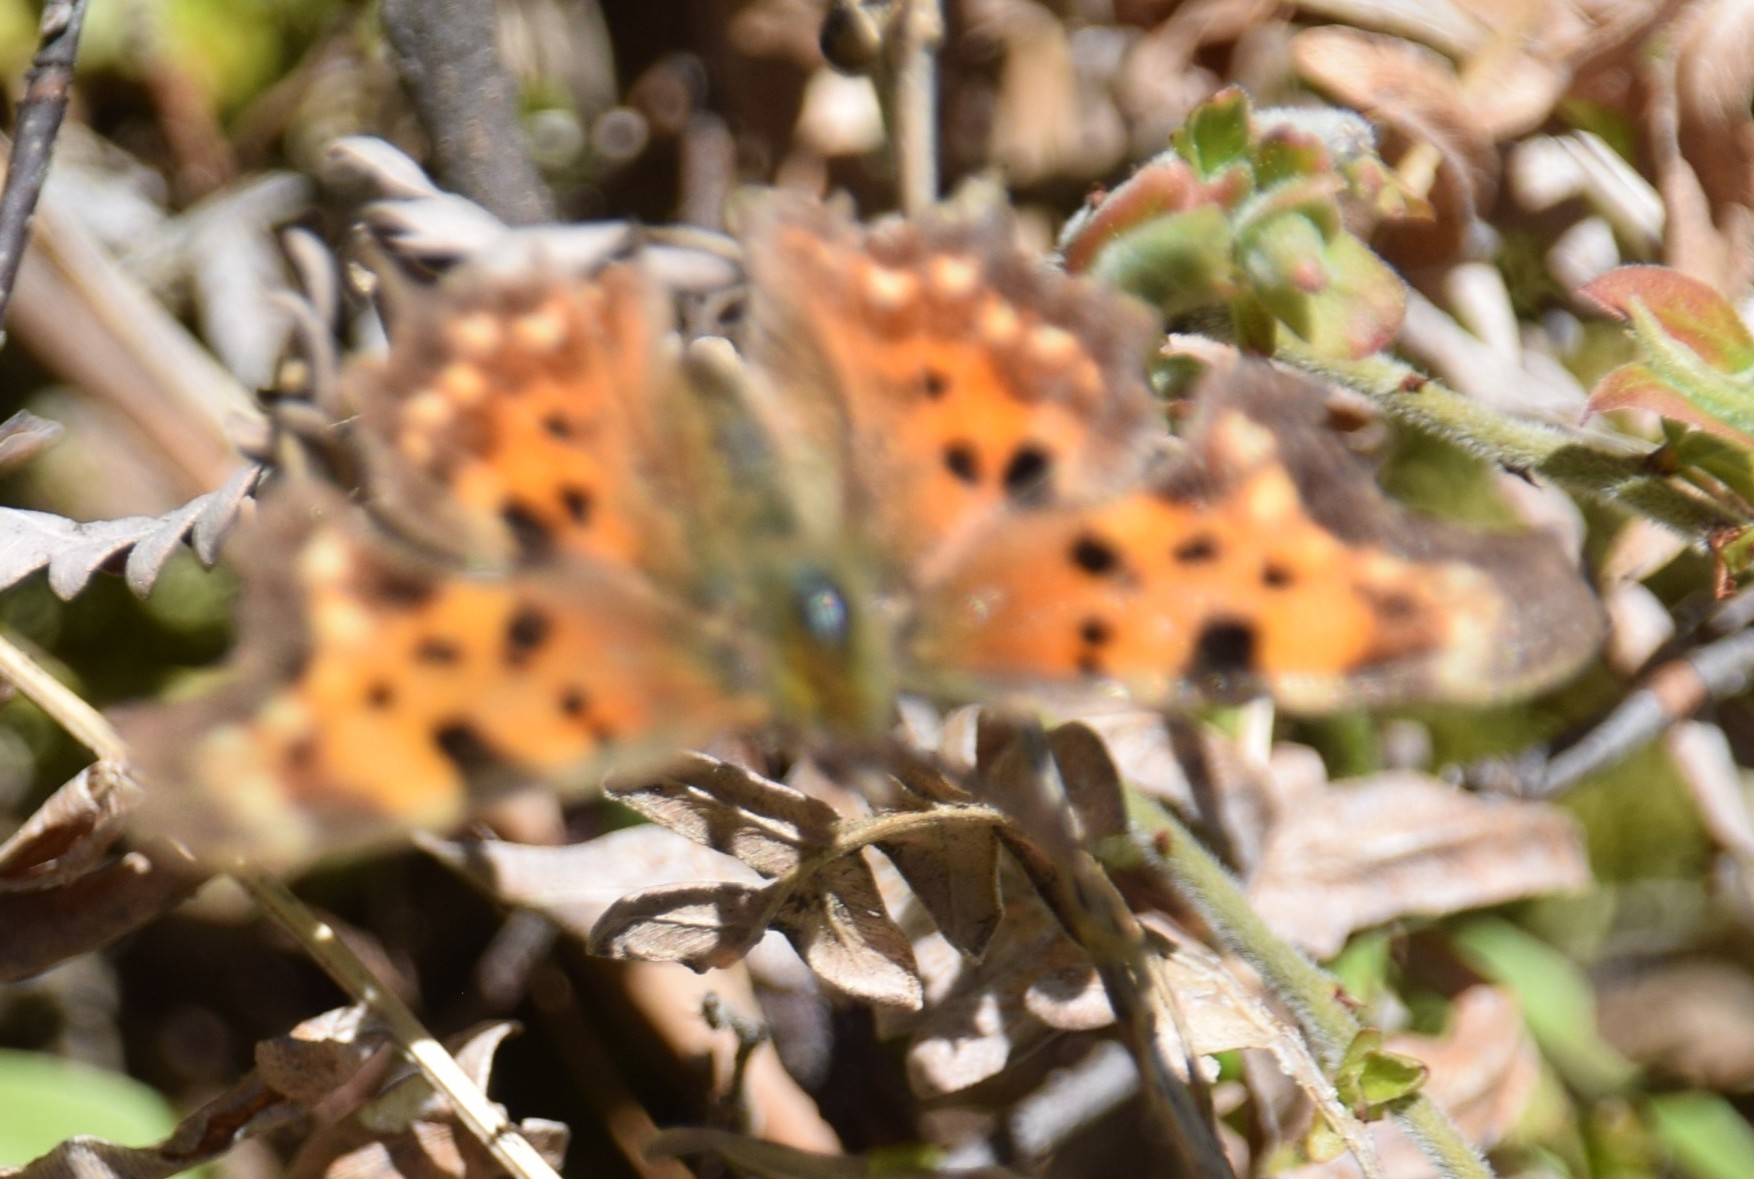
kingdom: Animalia
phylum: Arthropoda
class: Insecta
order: Lepidoptera
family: Nymphalidae
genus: Polygonia
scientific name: Polygonia faunus
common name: Green comma
